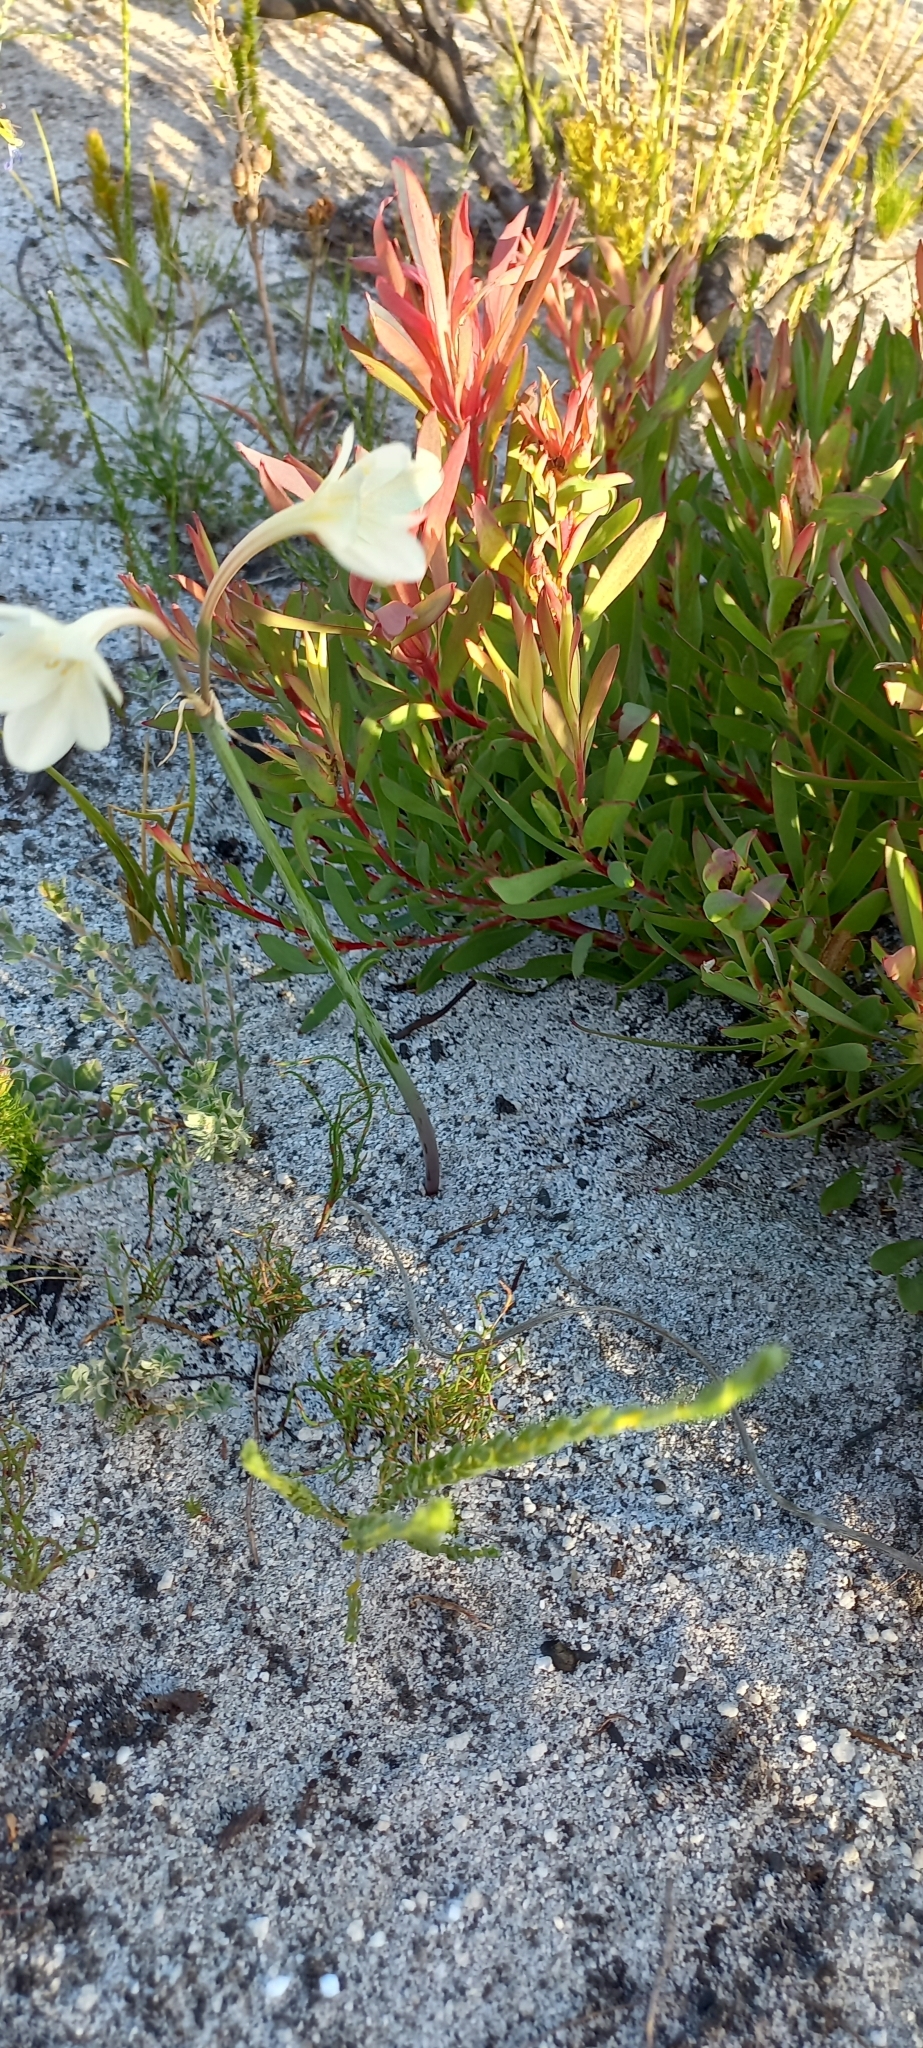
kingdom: Plantae
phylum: Tracheophyta
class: Liliopsida
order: Asparagales
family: Amaryllidaceae
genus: Cyrtanthus
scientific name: Cyrtanthus leucanthus
